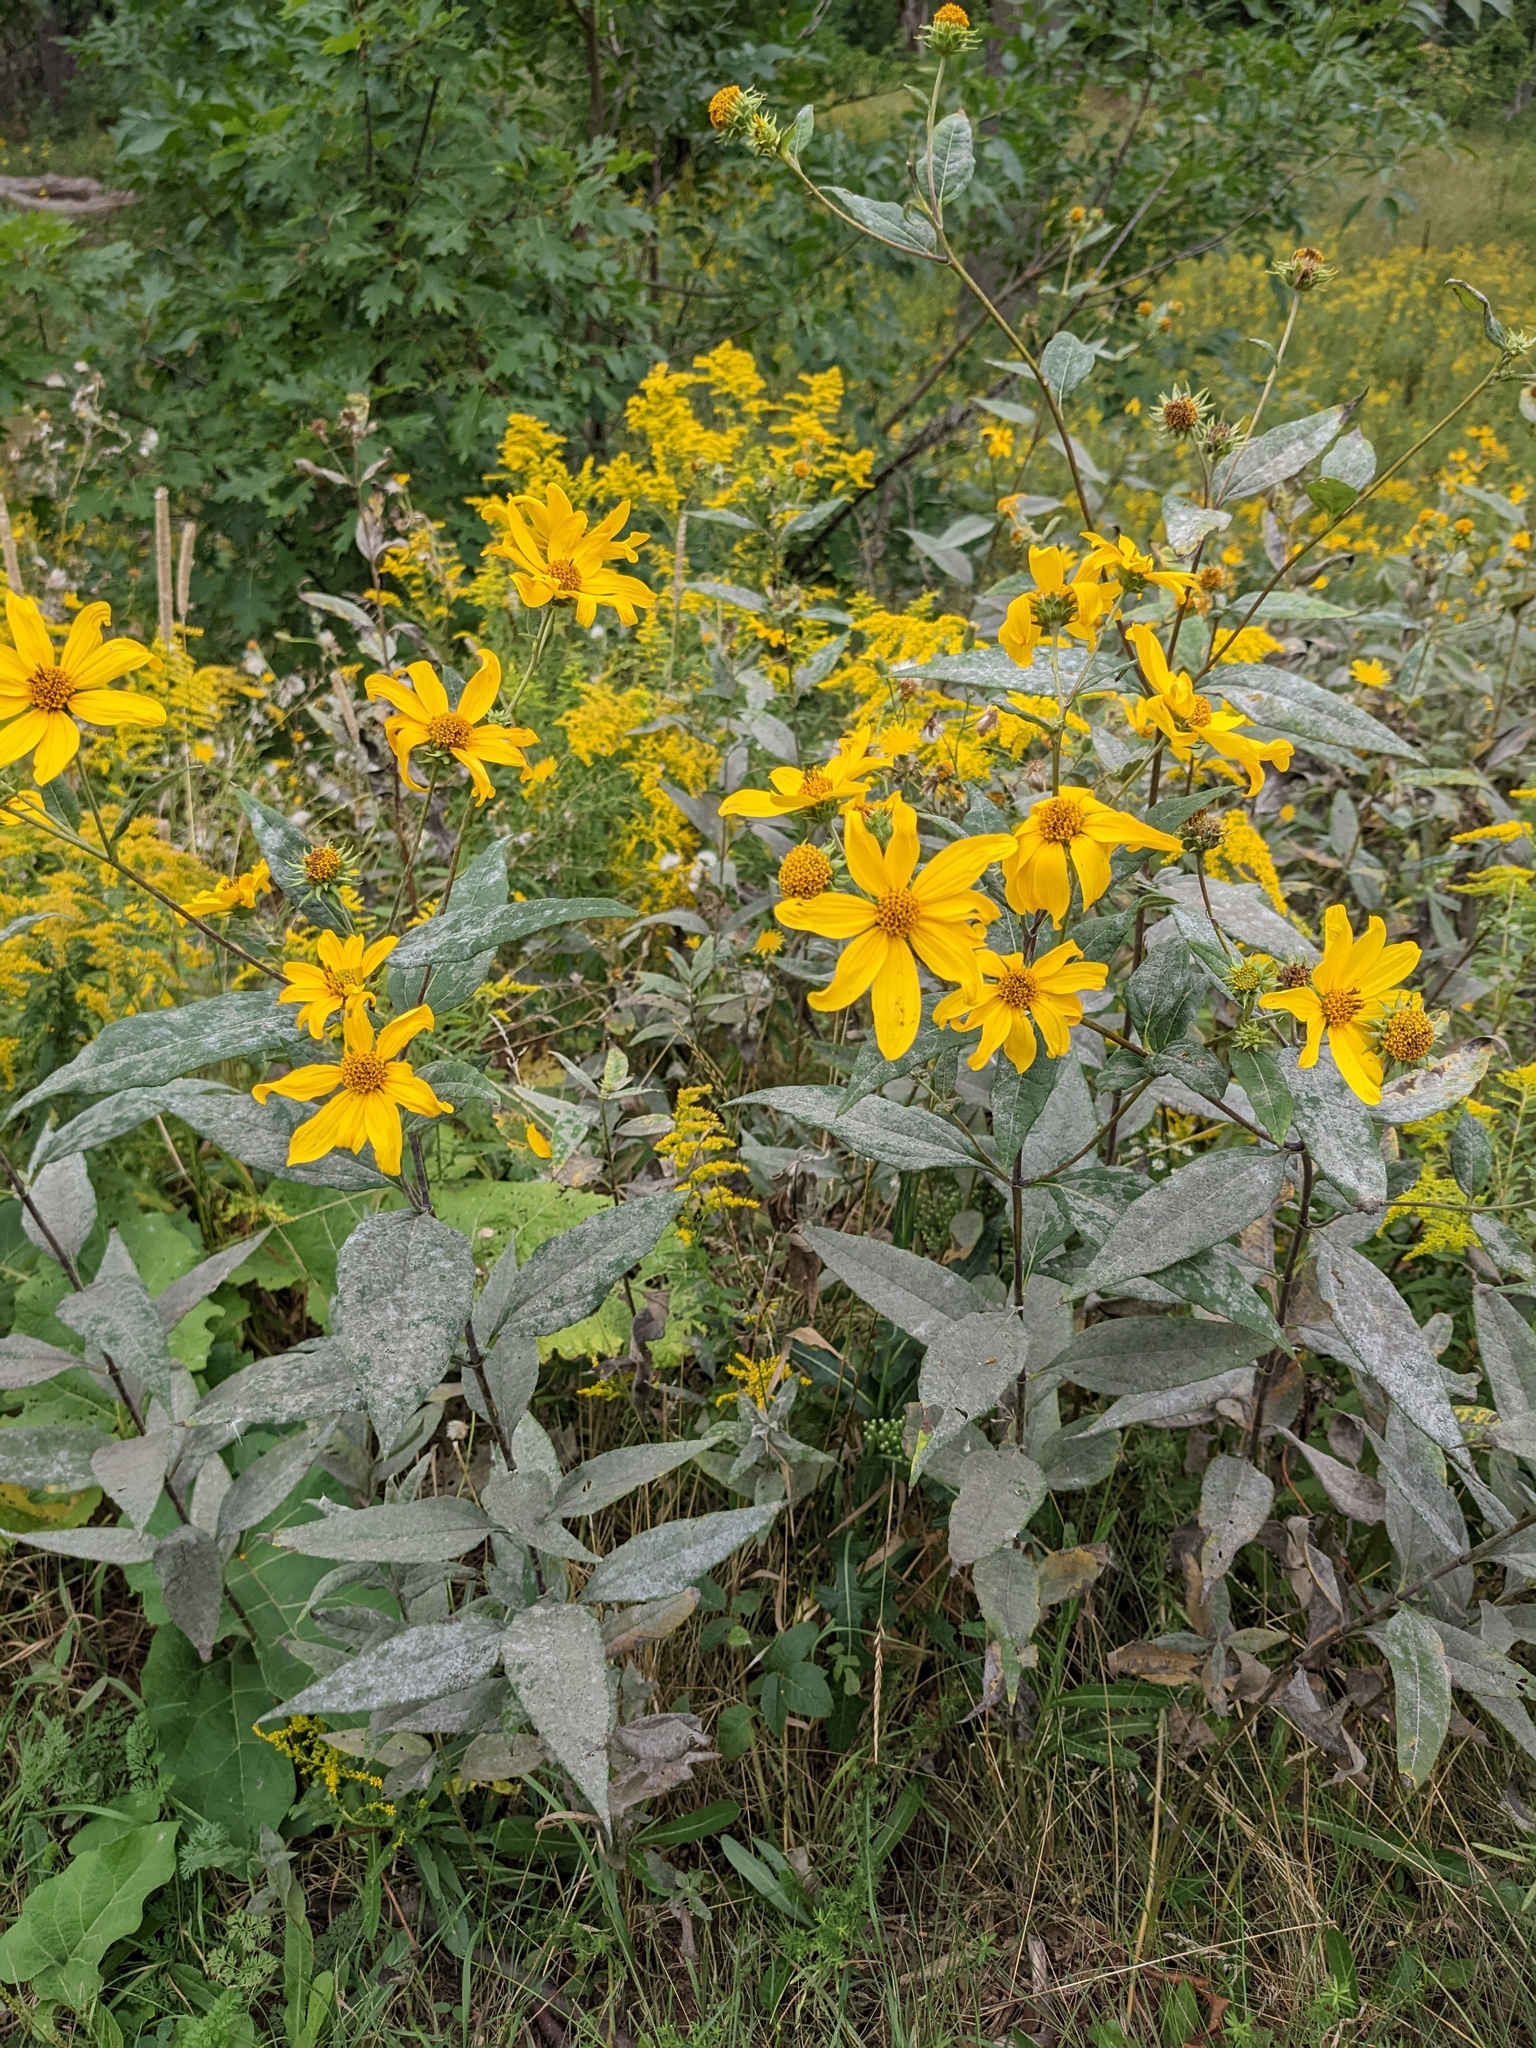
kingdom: Plantae
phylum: Tracheophyta
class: Magnoliopsida
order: Asterales
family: Asteraceae
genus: Helianthus
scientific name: Helianthus strumosus
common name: Pale-leaved sunflower
